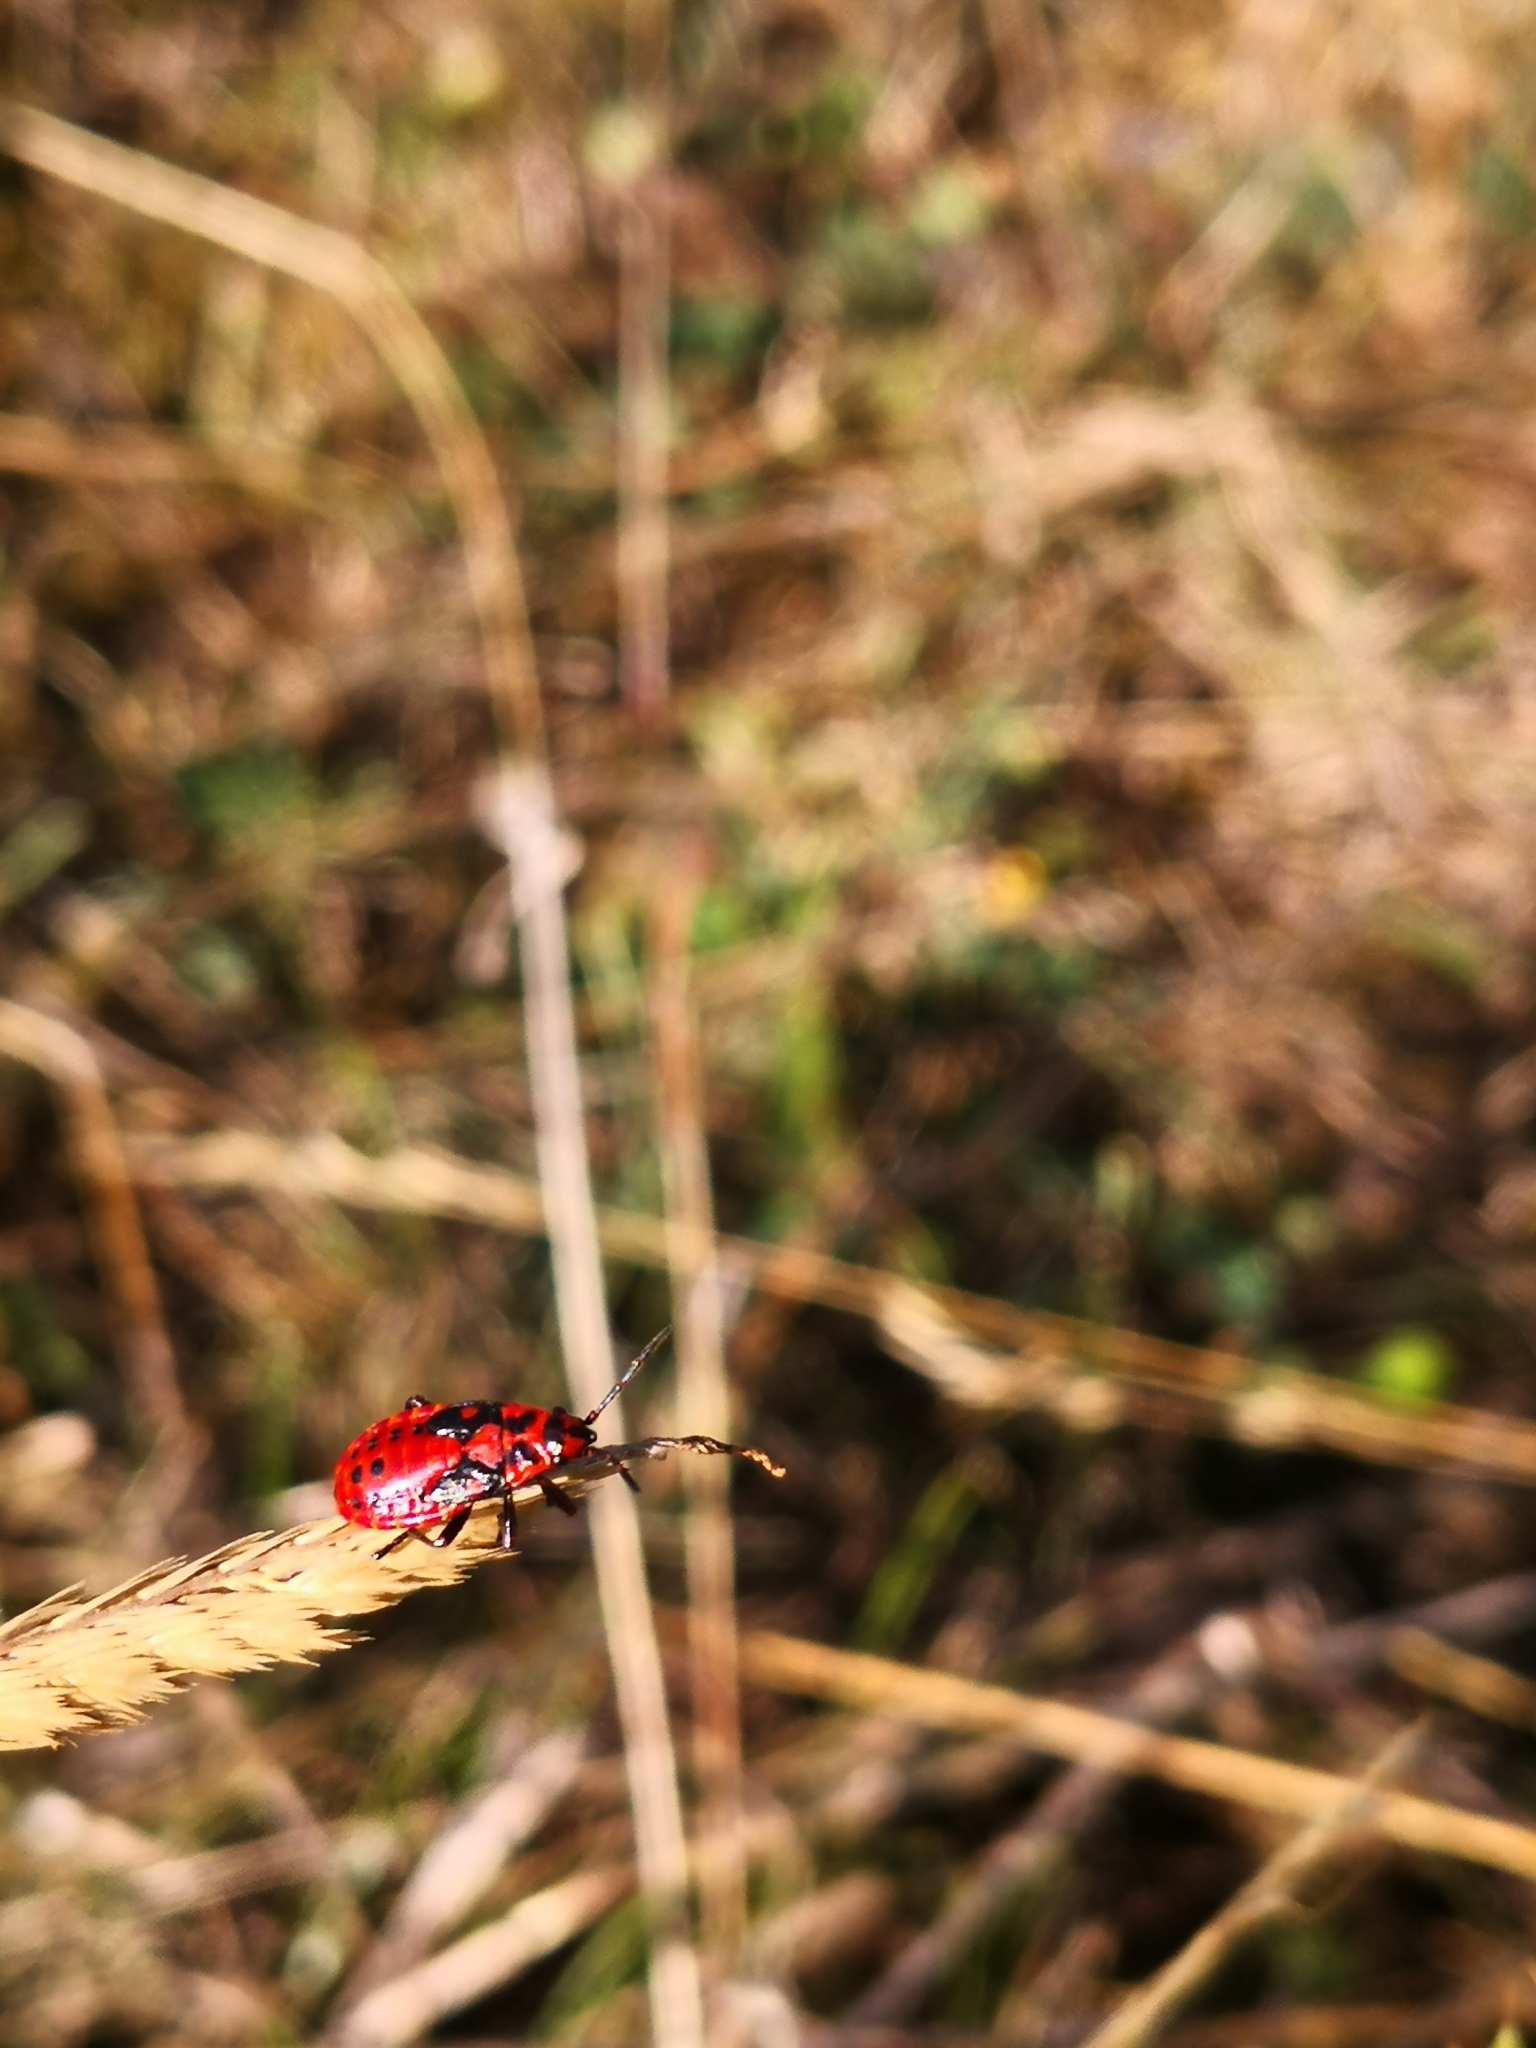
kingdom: Animalia
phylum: Arthropoda
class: Insecta
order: Hemiptera
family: Lygaeidae
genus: Spilostethus
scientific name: Spilostethus saxatilis
